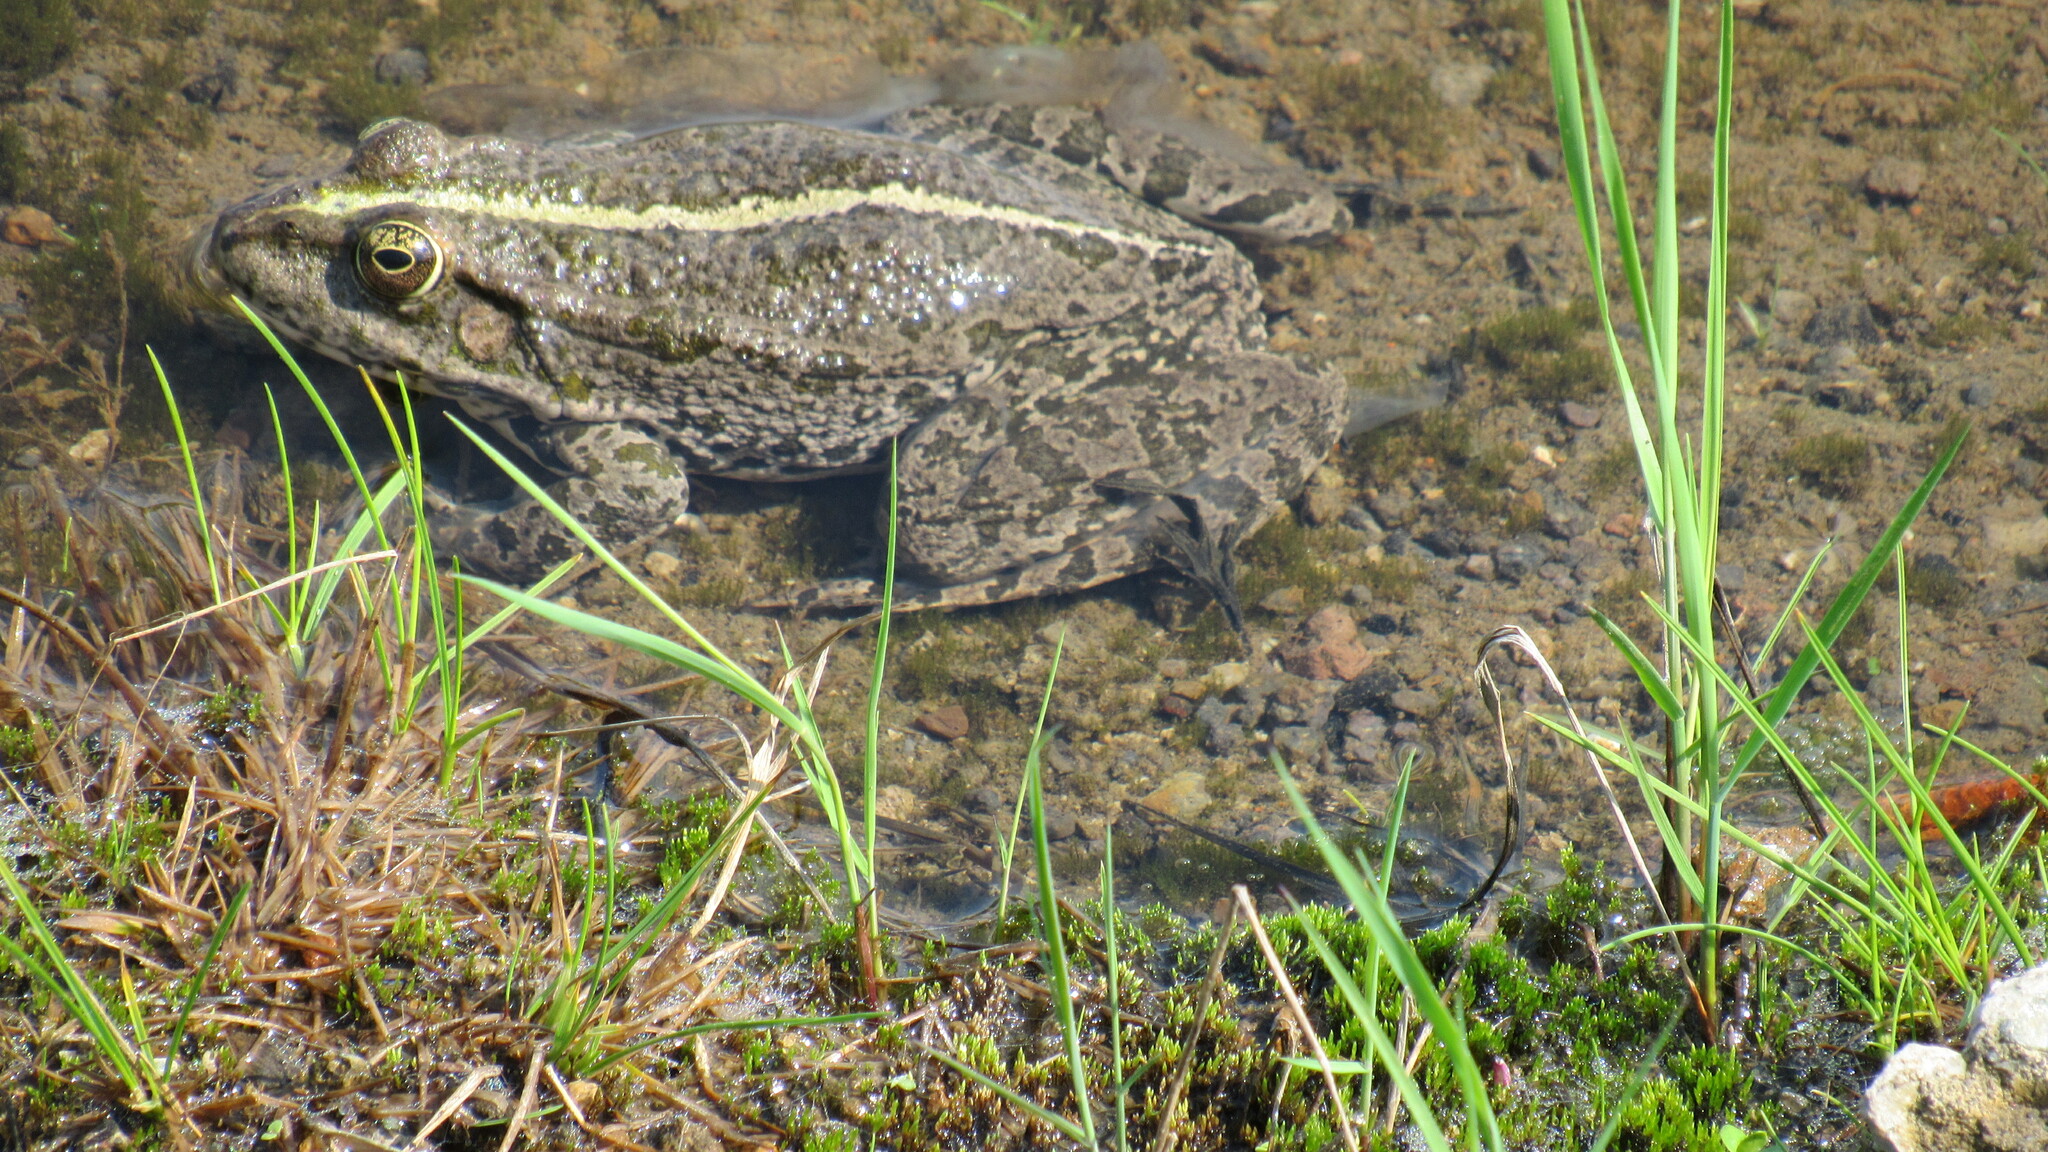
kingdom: Animalia
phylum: Chordata
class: Amphibia
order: Anura
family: Ranidae
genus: Pelophylax
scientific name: Pelophylax ridibundus
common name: Marsh frog
